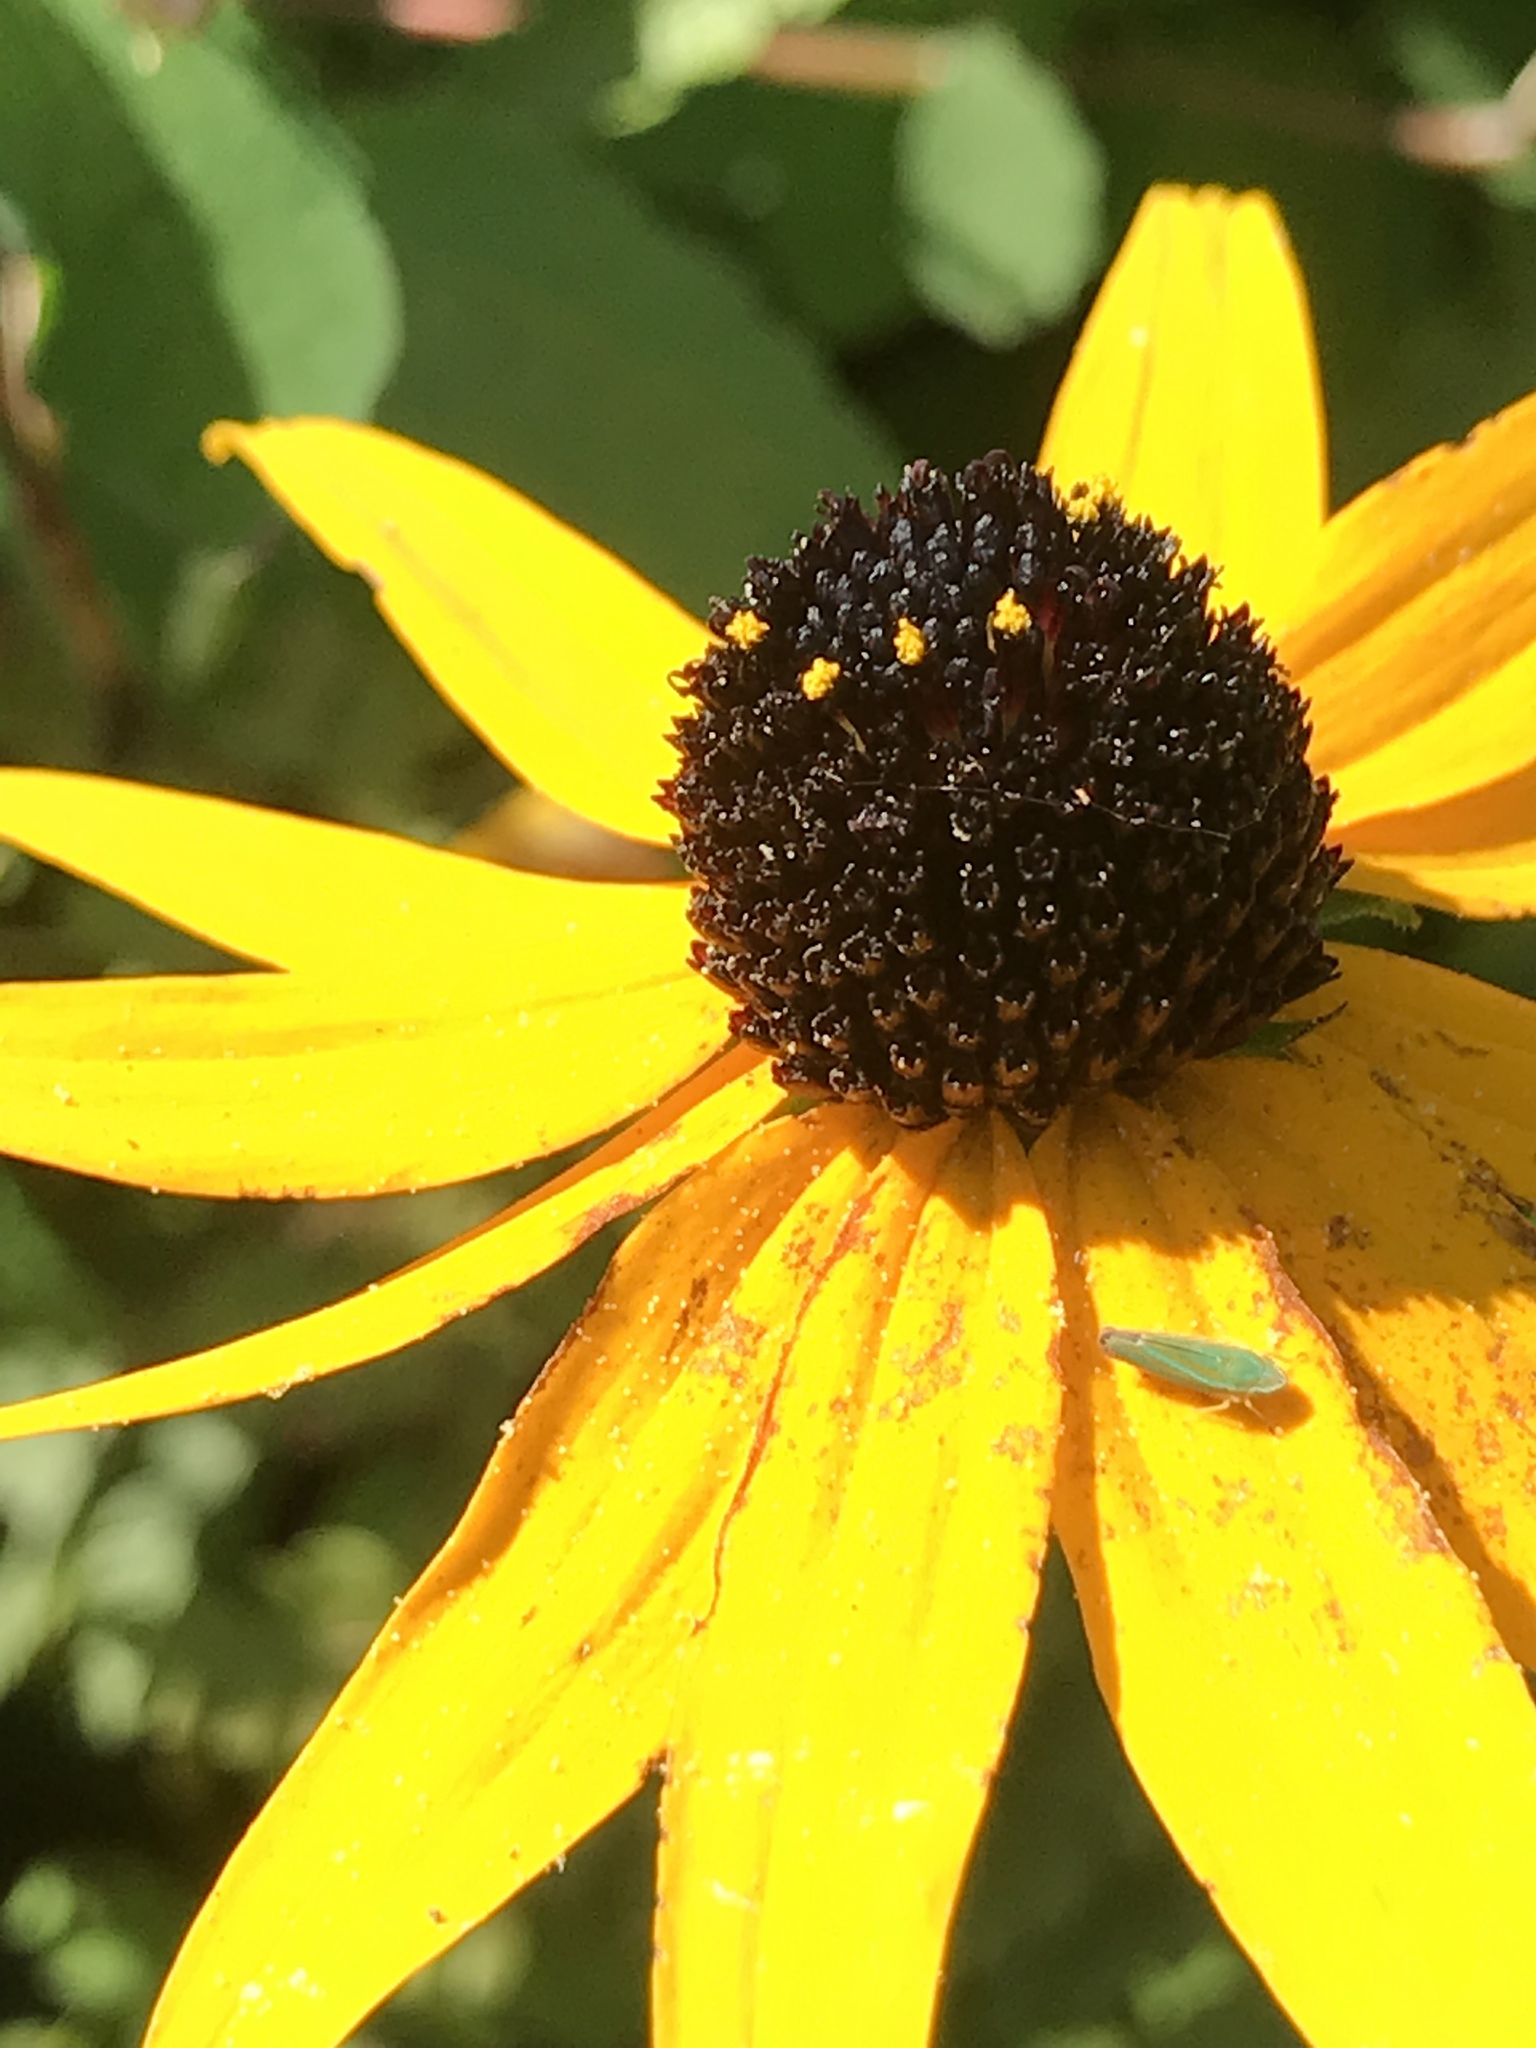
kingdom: Plantae
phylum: Tracheophyta
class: Magnoliopsida
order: Asterales
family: Asteraceae
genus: Rudbeckia
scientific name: Rudbeckia hirta
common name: Black-eyed-susan
